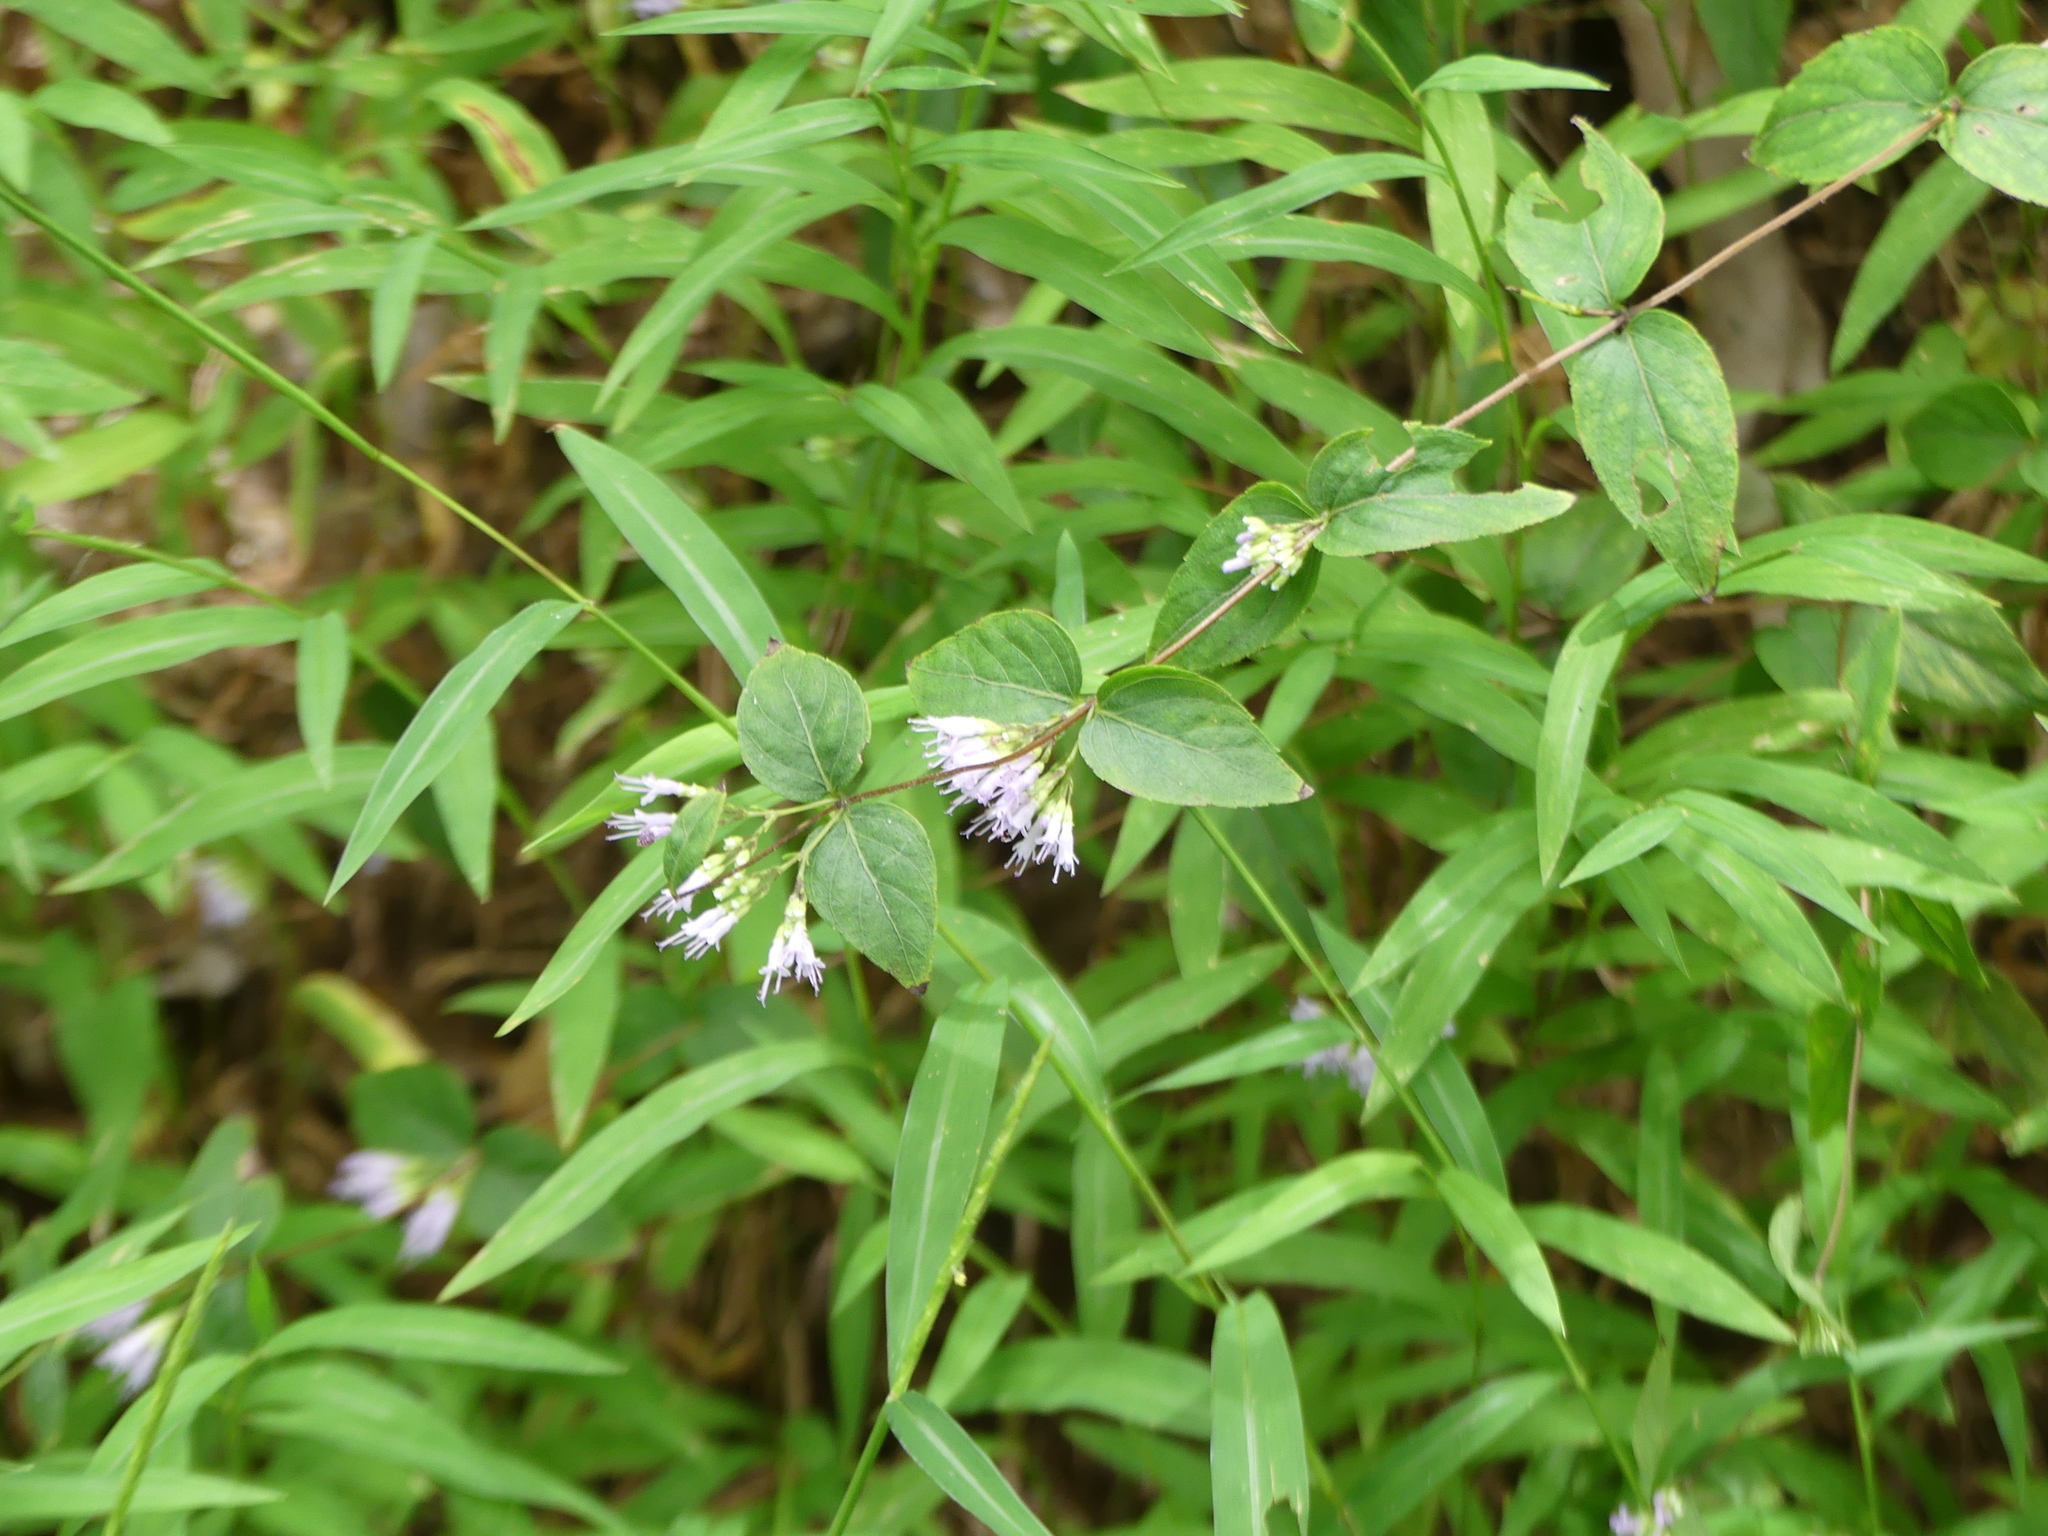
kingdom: Plantae
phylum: Tracheophyta
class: Magnoliopsida
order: Lamiales
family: Lamiaceae
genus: Cunila
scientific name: Cunila origanoides
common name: American dittany
